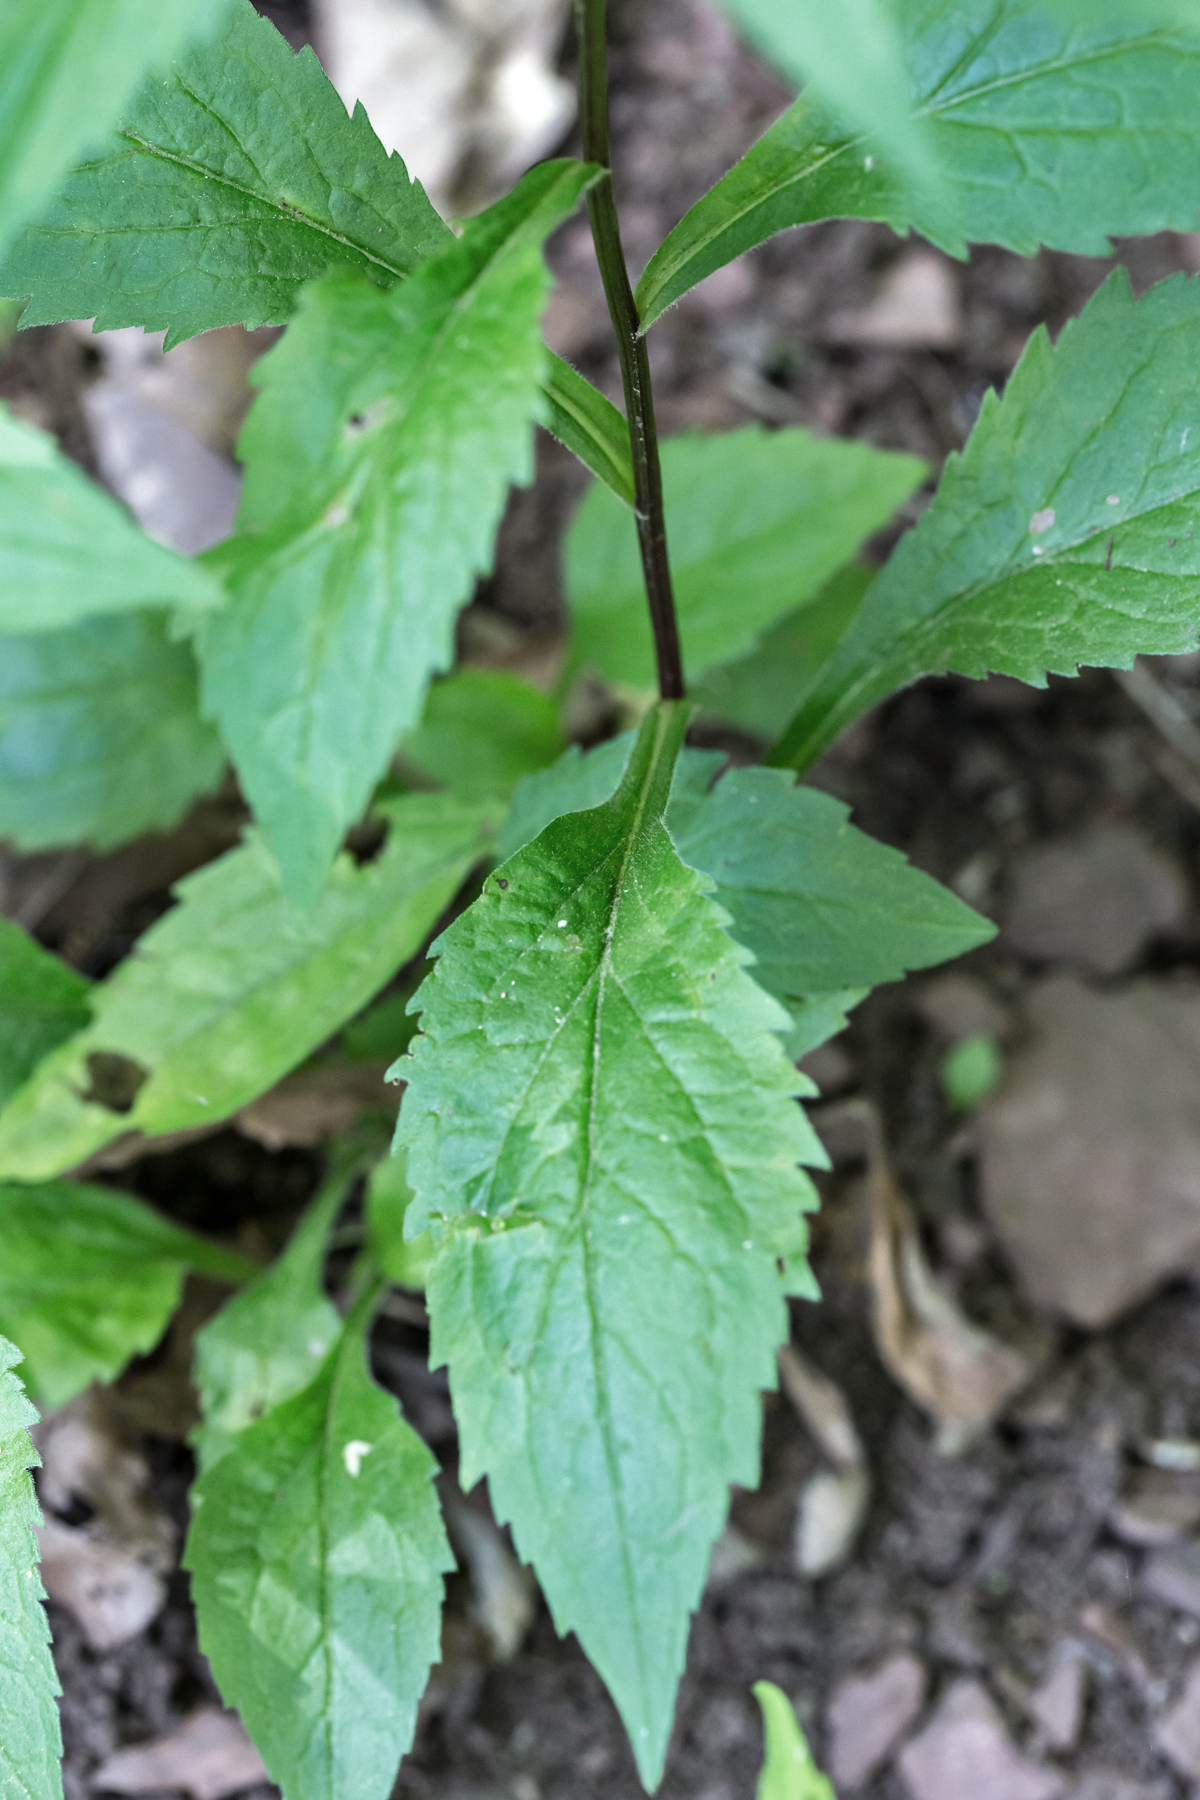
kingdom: Plantae
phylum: Tracheophyta
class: Magnoliopsida
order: Asterales
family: Asteraceae
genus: Solidago
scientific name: Solidago ulmifolia
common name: Elm-leaf goldenrod
